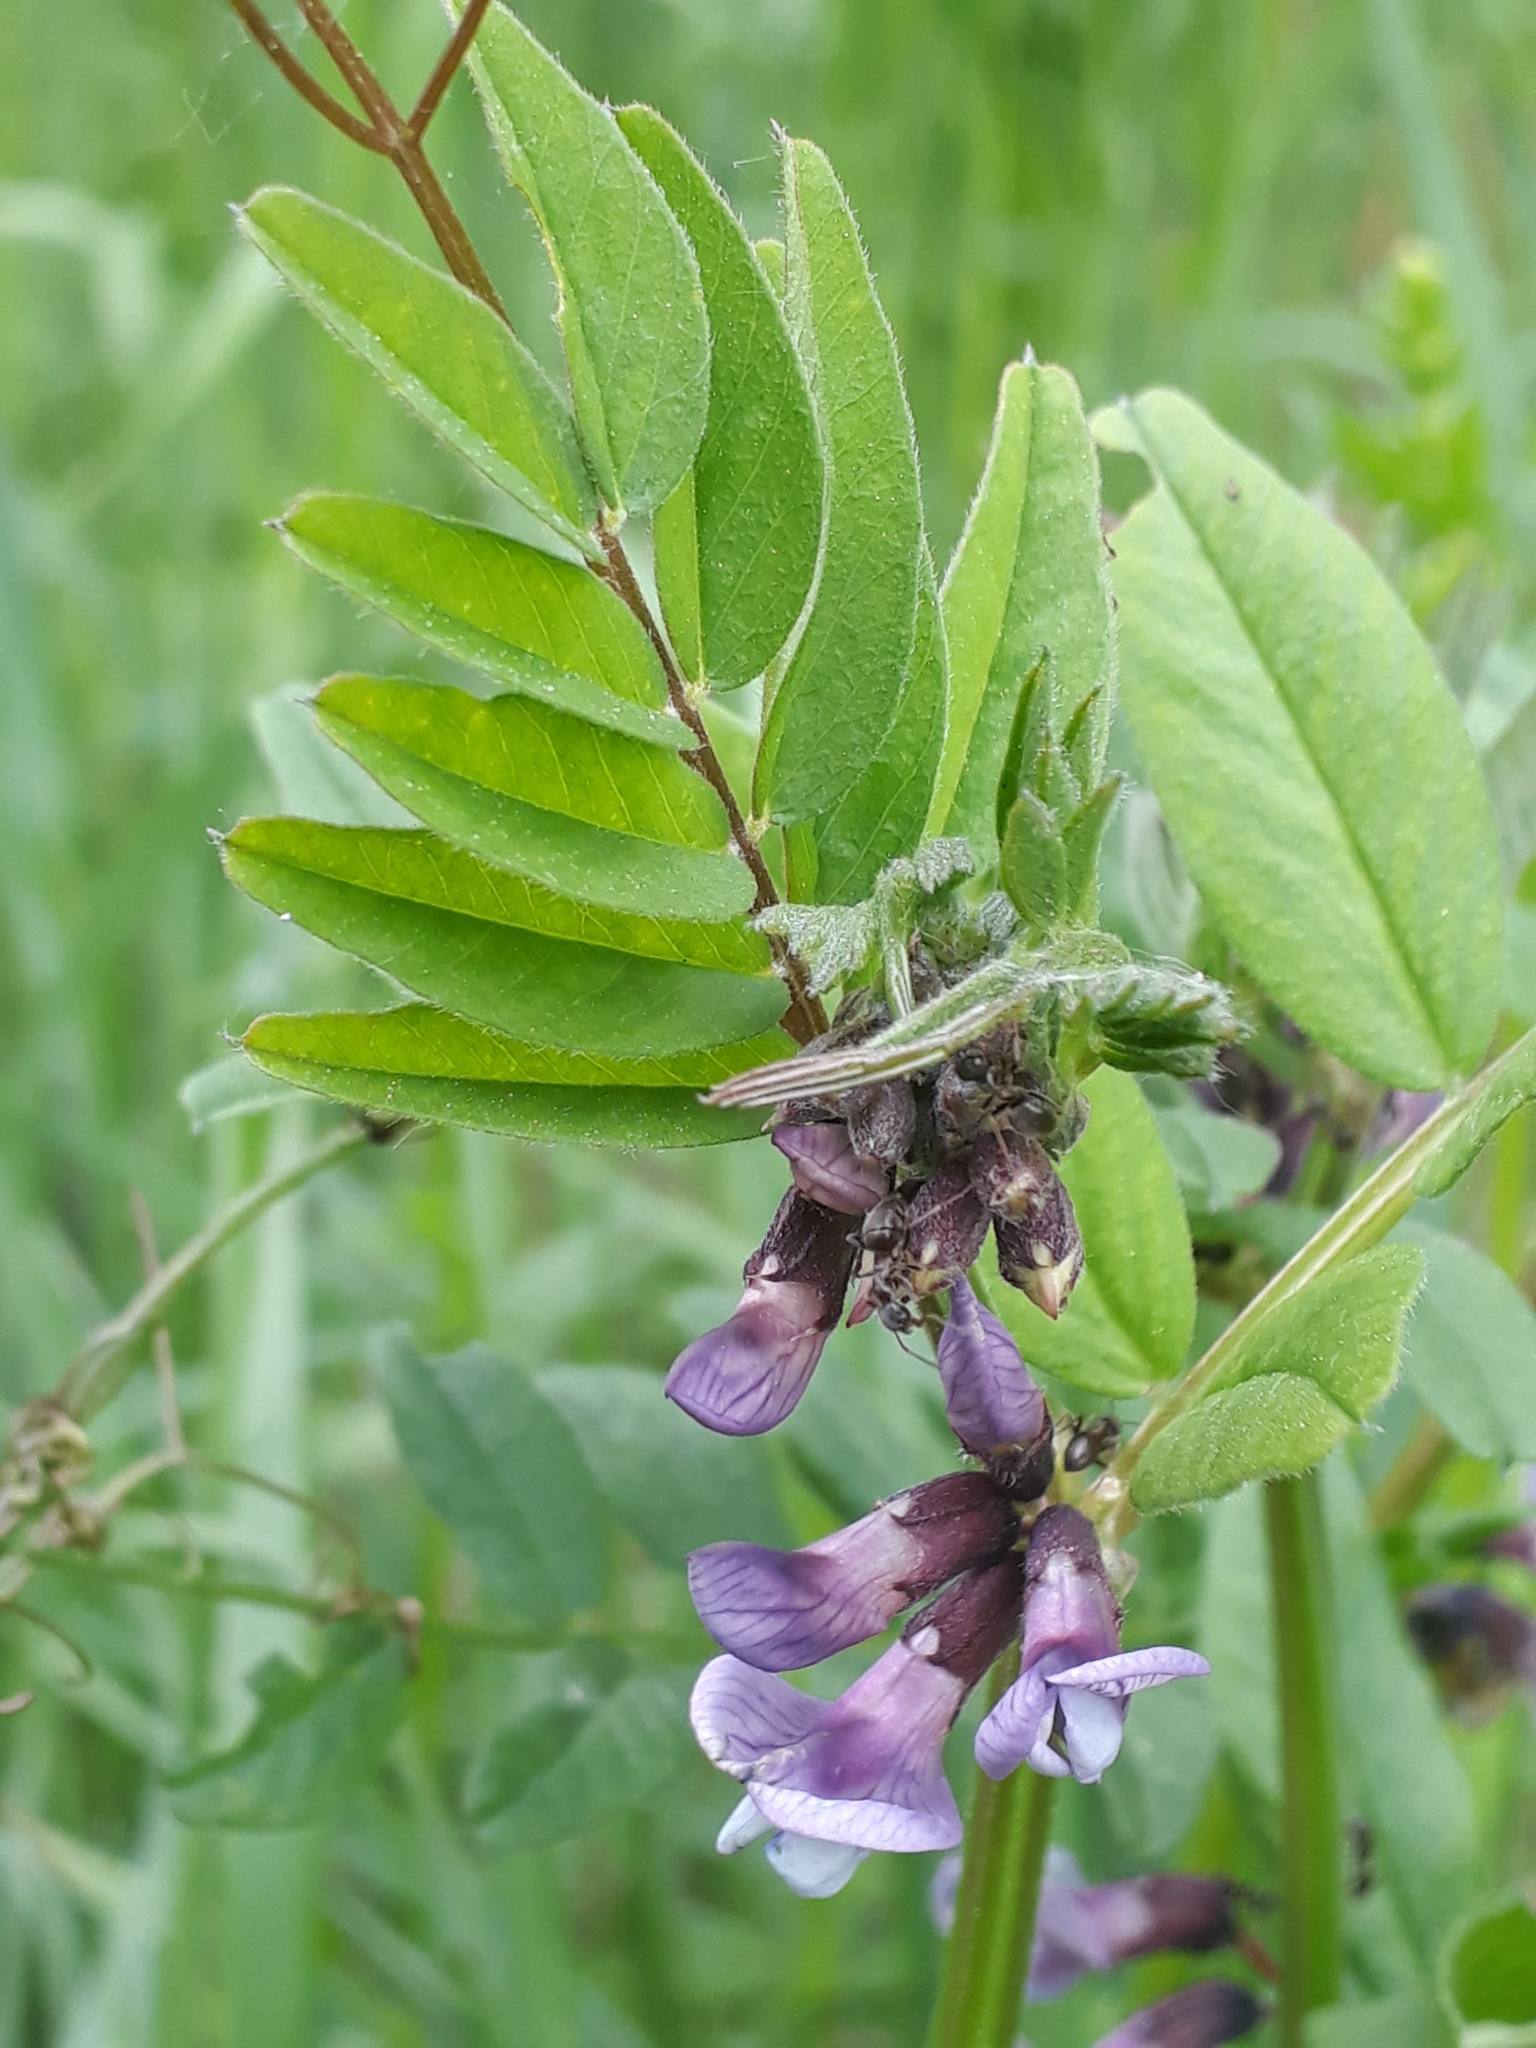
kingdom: Plantae
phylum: Tracheophyta
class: Magnoliopsida
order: Fabales
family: Fabaceae
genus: Vicia
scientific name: Vicia sepium
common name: Bush vetch
